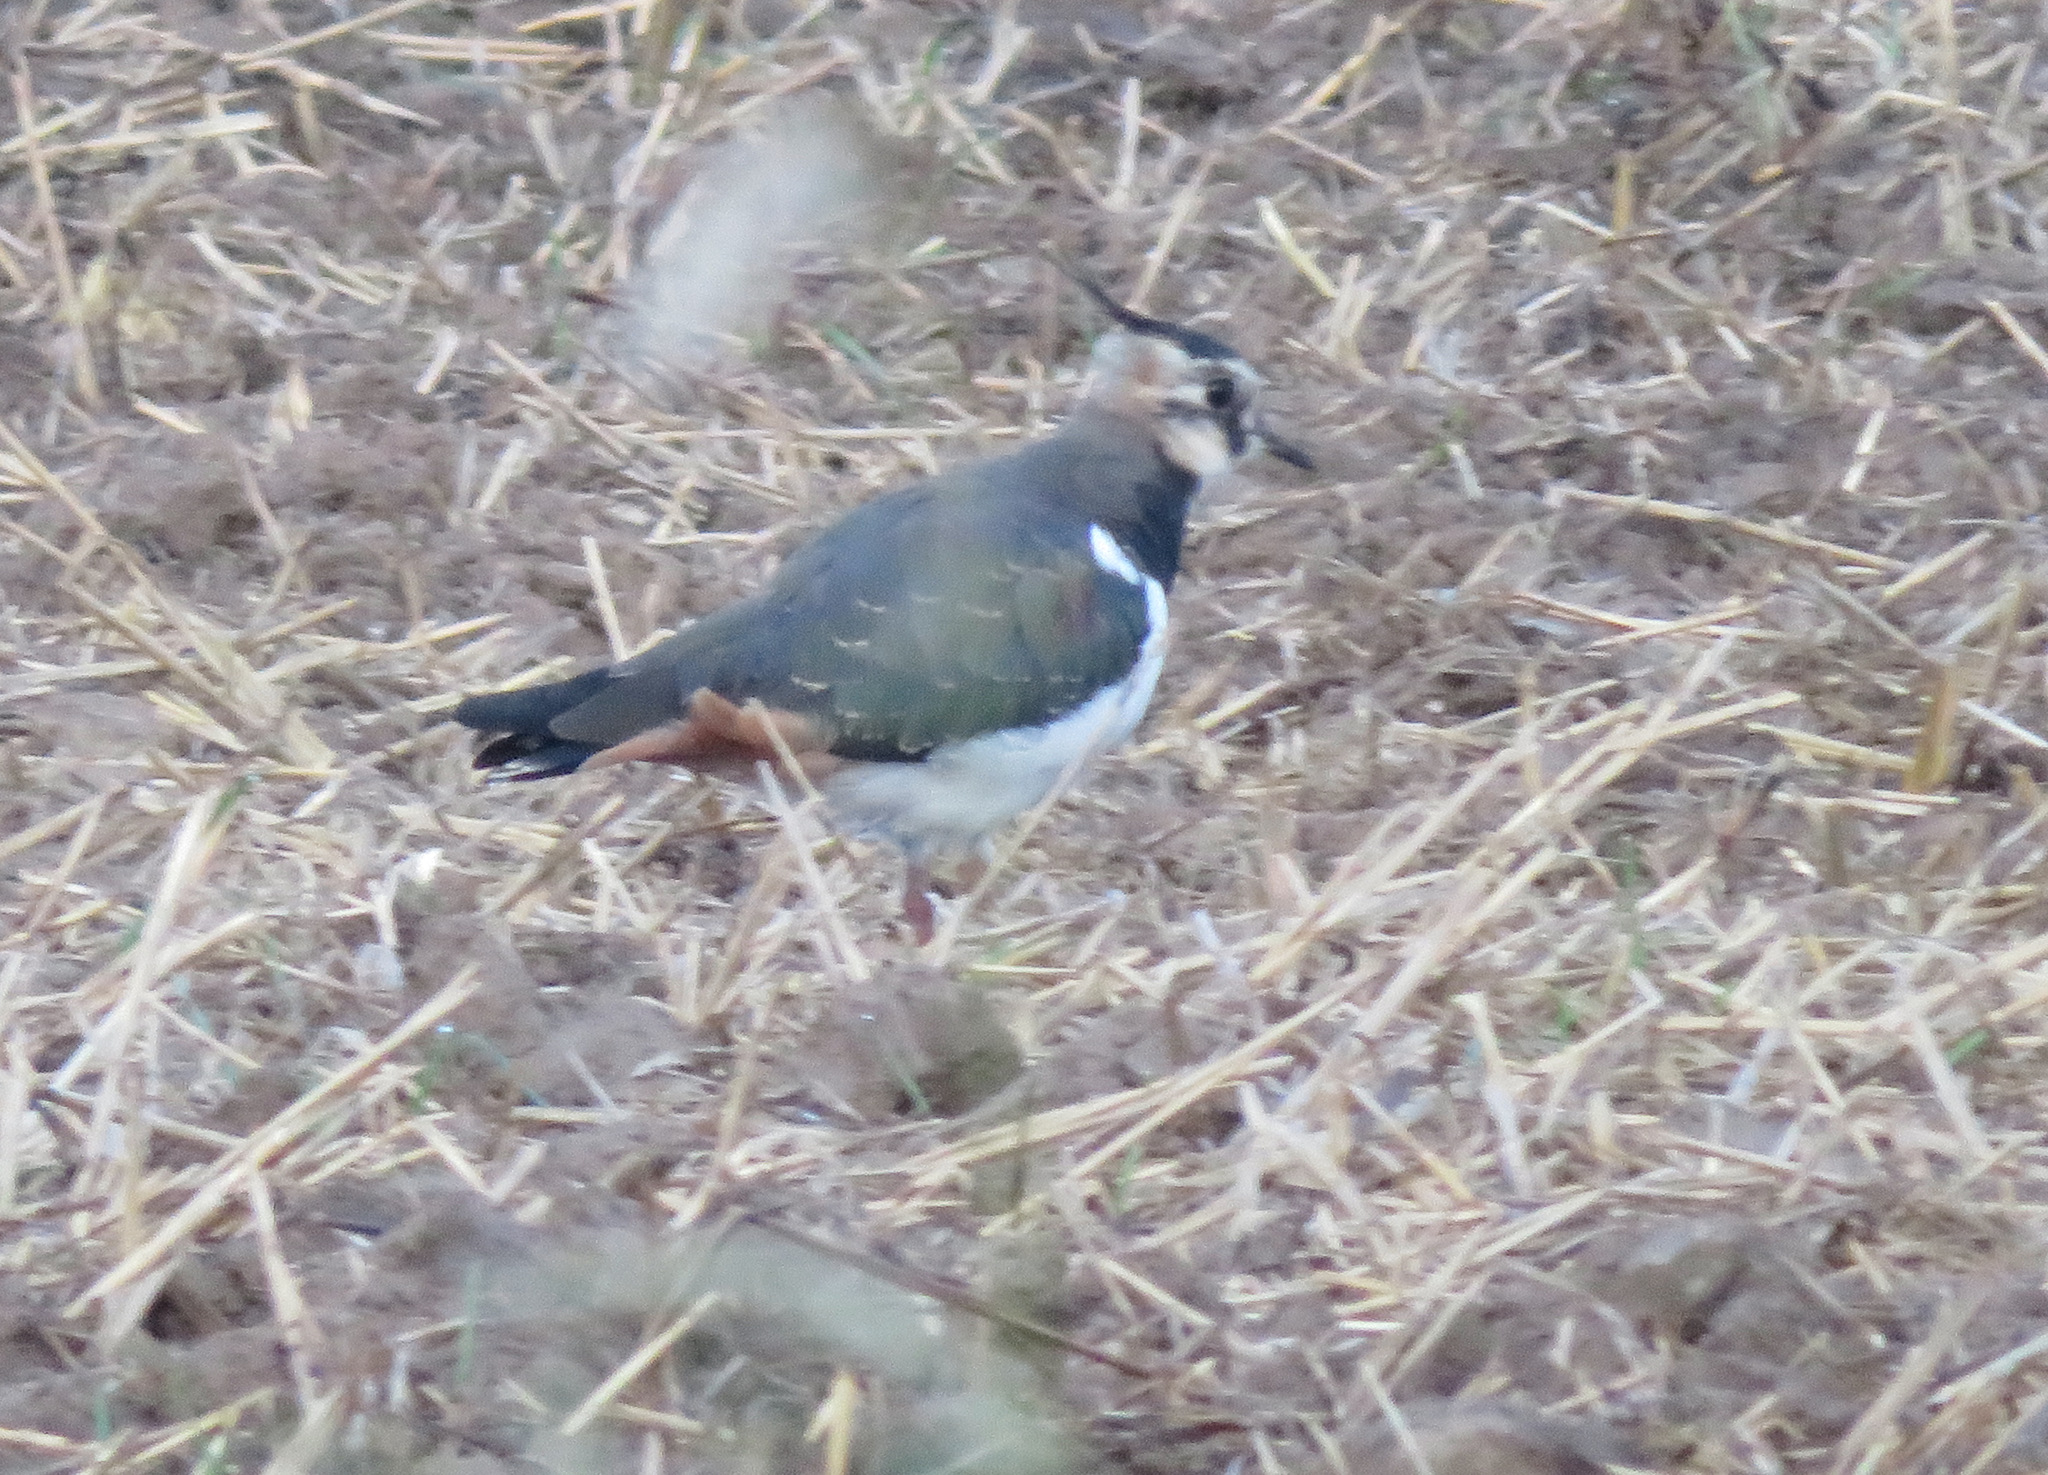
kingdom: Animalia
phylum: Chordata
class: Aves
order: Charadriiformes
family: Charadriidae
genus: Vanellus
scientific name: Vanellus vanellus
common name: Northern lapwing
